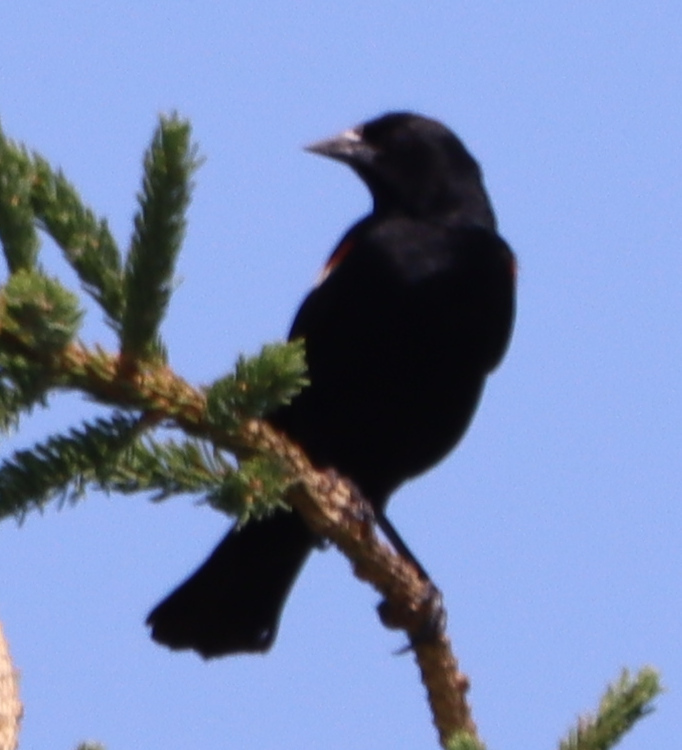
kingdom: Animalia
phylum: Chordata
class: Aves
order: Passeriformes
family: Icteridae
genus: Agelaius
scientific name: Agelaius phoeniceus
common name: Red-winged blackbird
